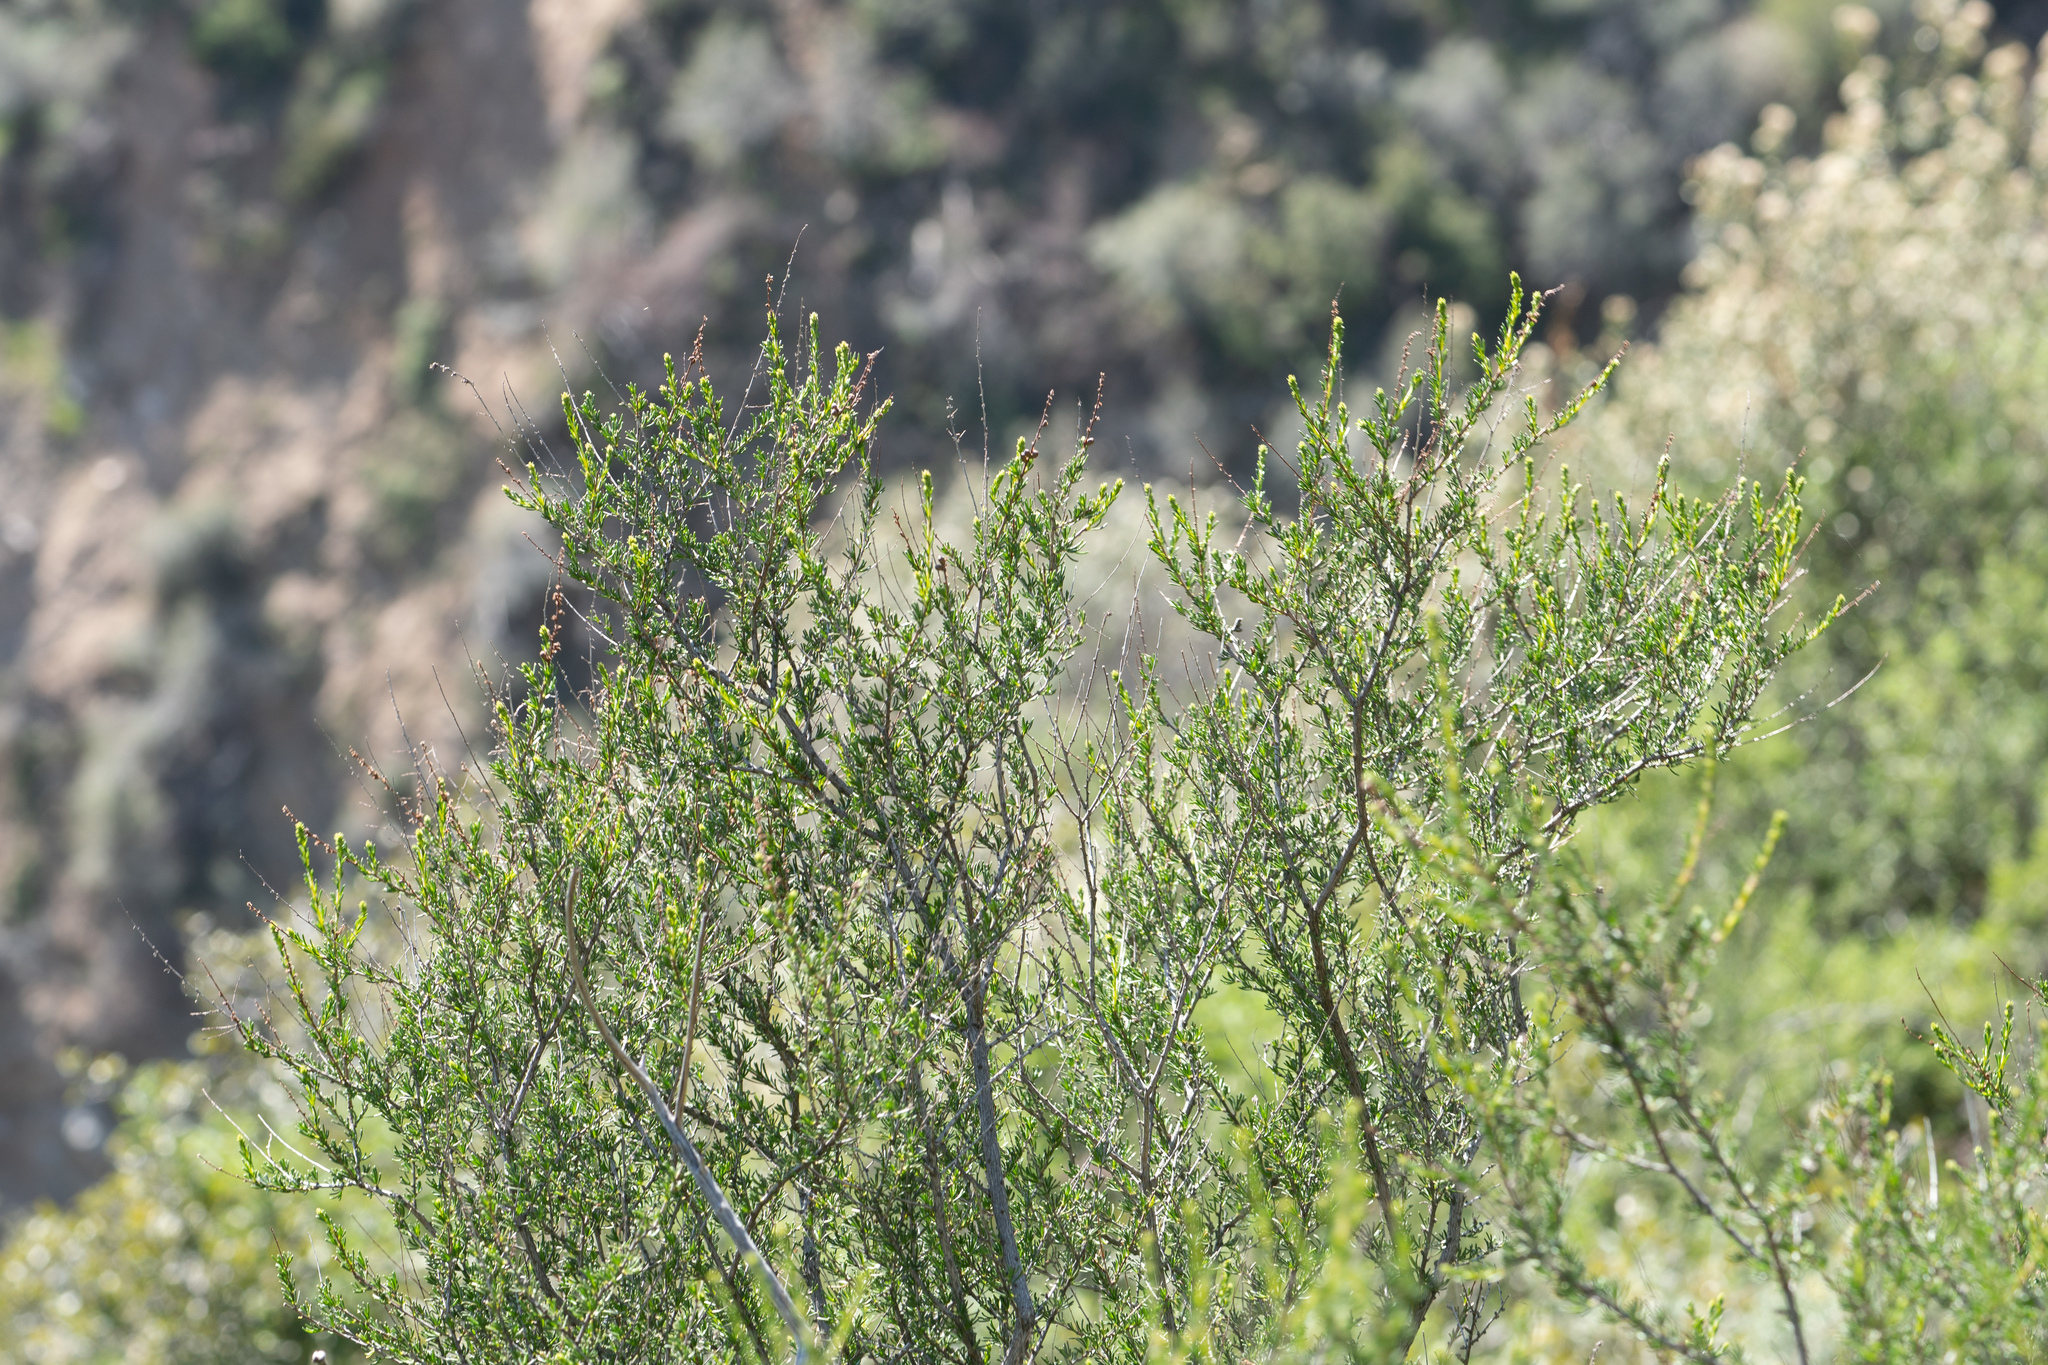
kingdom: Plantae
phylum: Tracheophyta
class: Magnoliopsida
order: Rosales
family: Rosaceae
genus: Adenostoma
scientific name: Adenostoma fasciculatum
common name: Chamise
